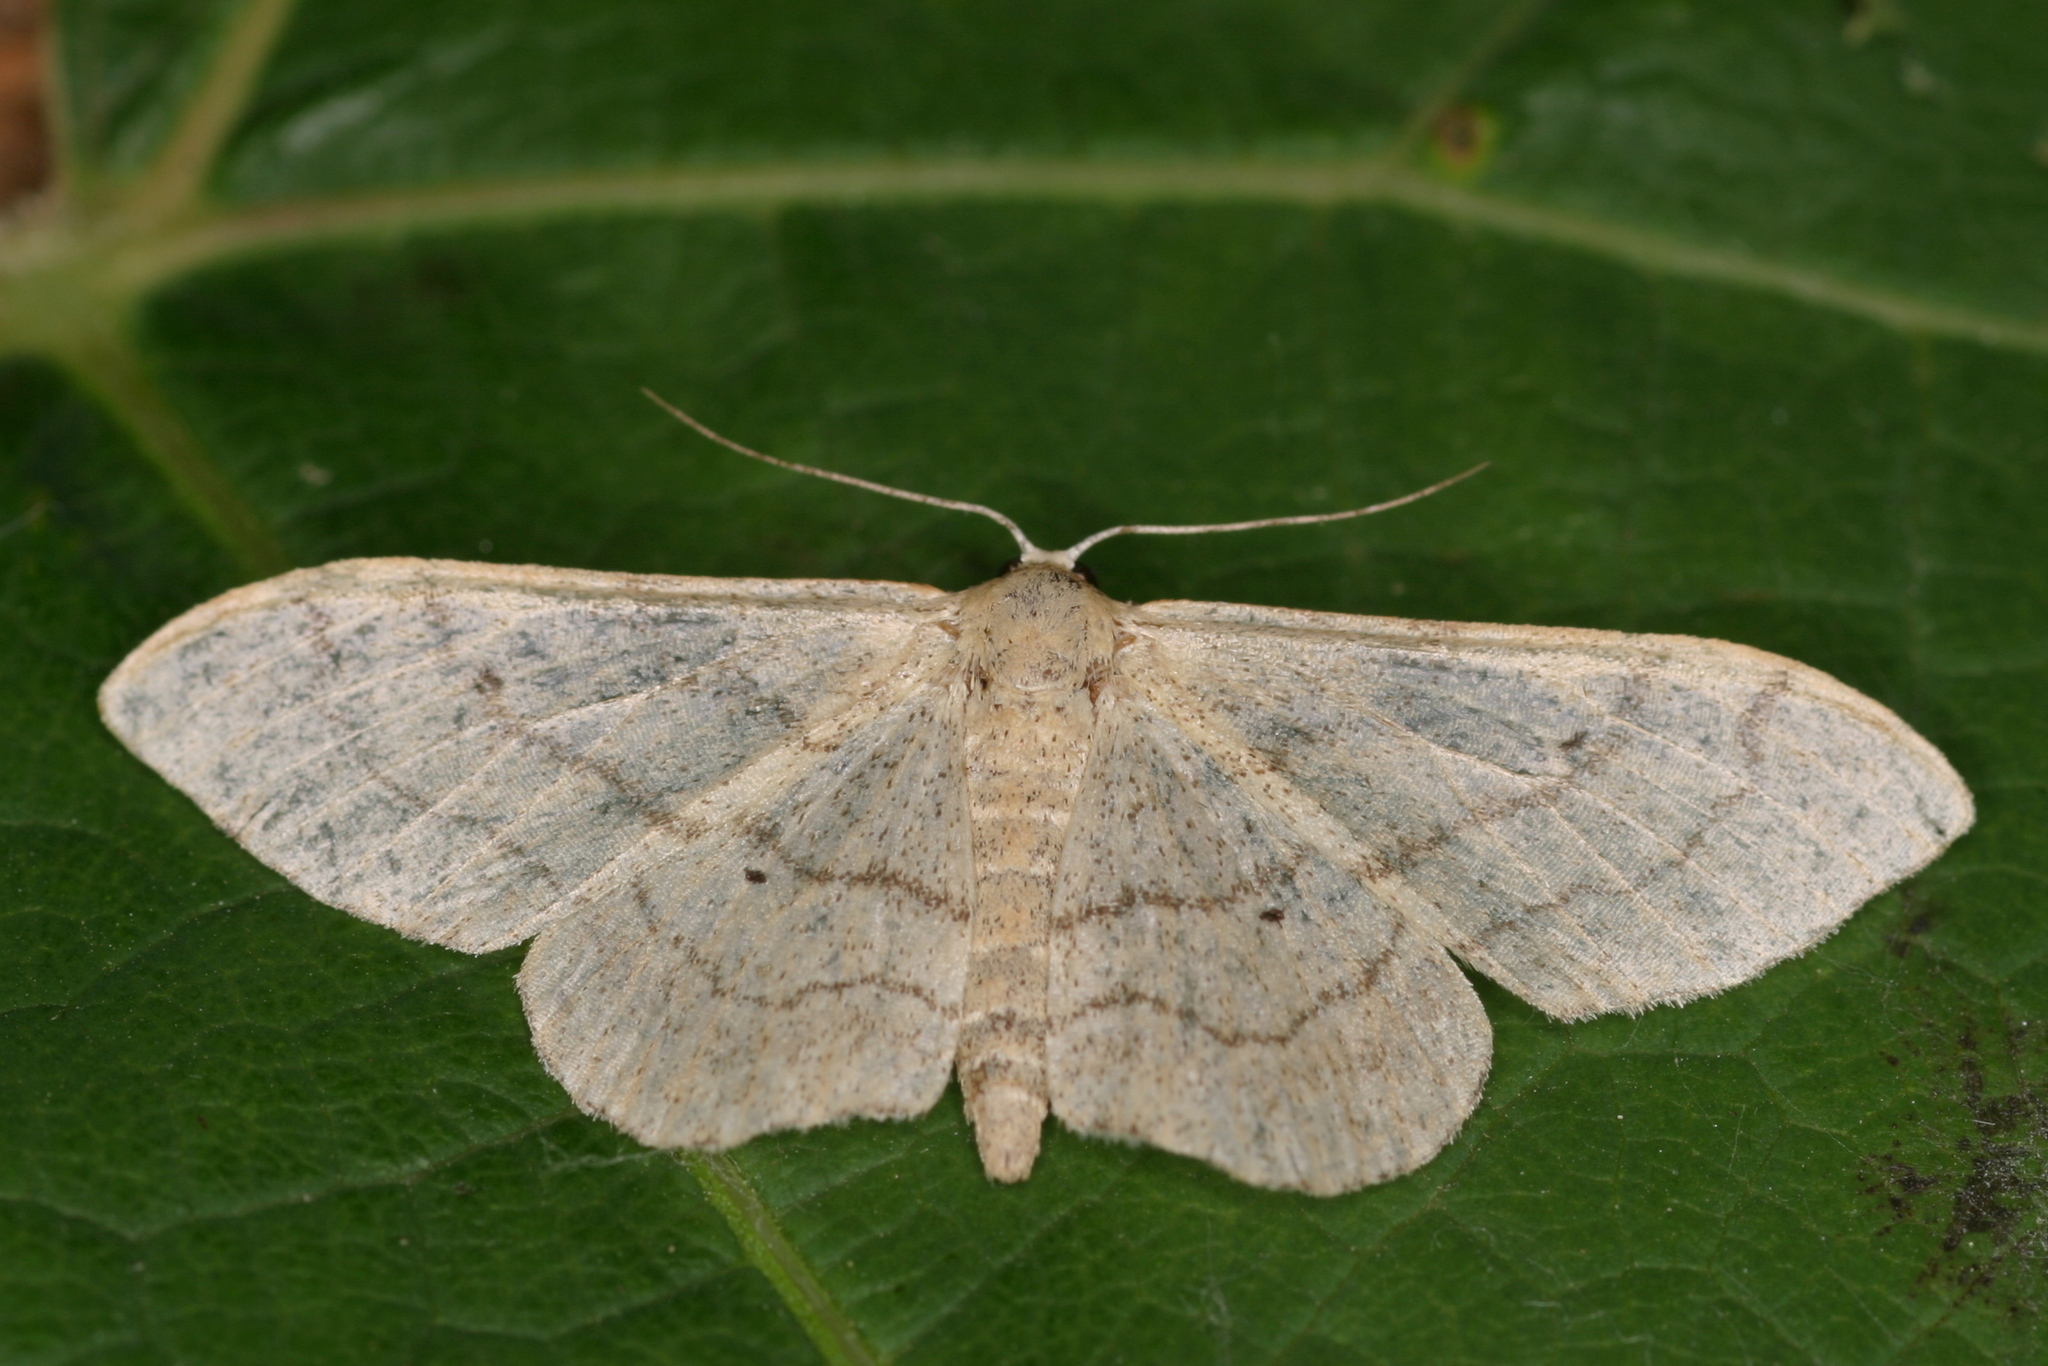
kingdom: Animalia
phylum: Arthropoda
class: Insecta
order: Lepidoptera
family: Geometridae
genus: Idaea
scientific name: Idaea aversata
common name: Riband wave
